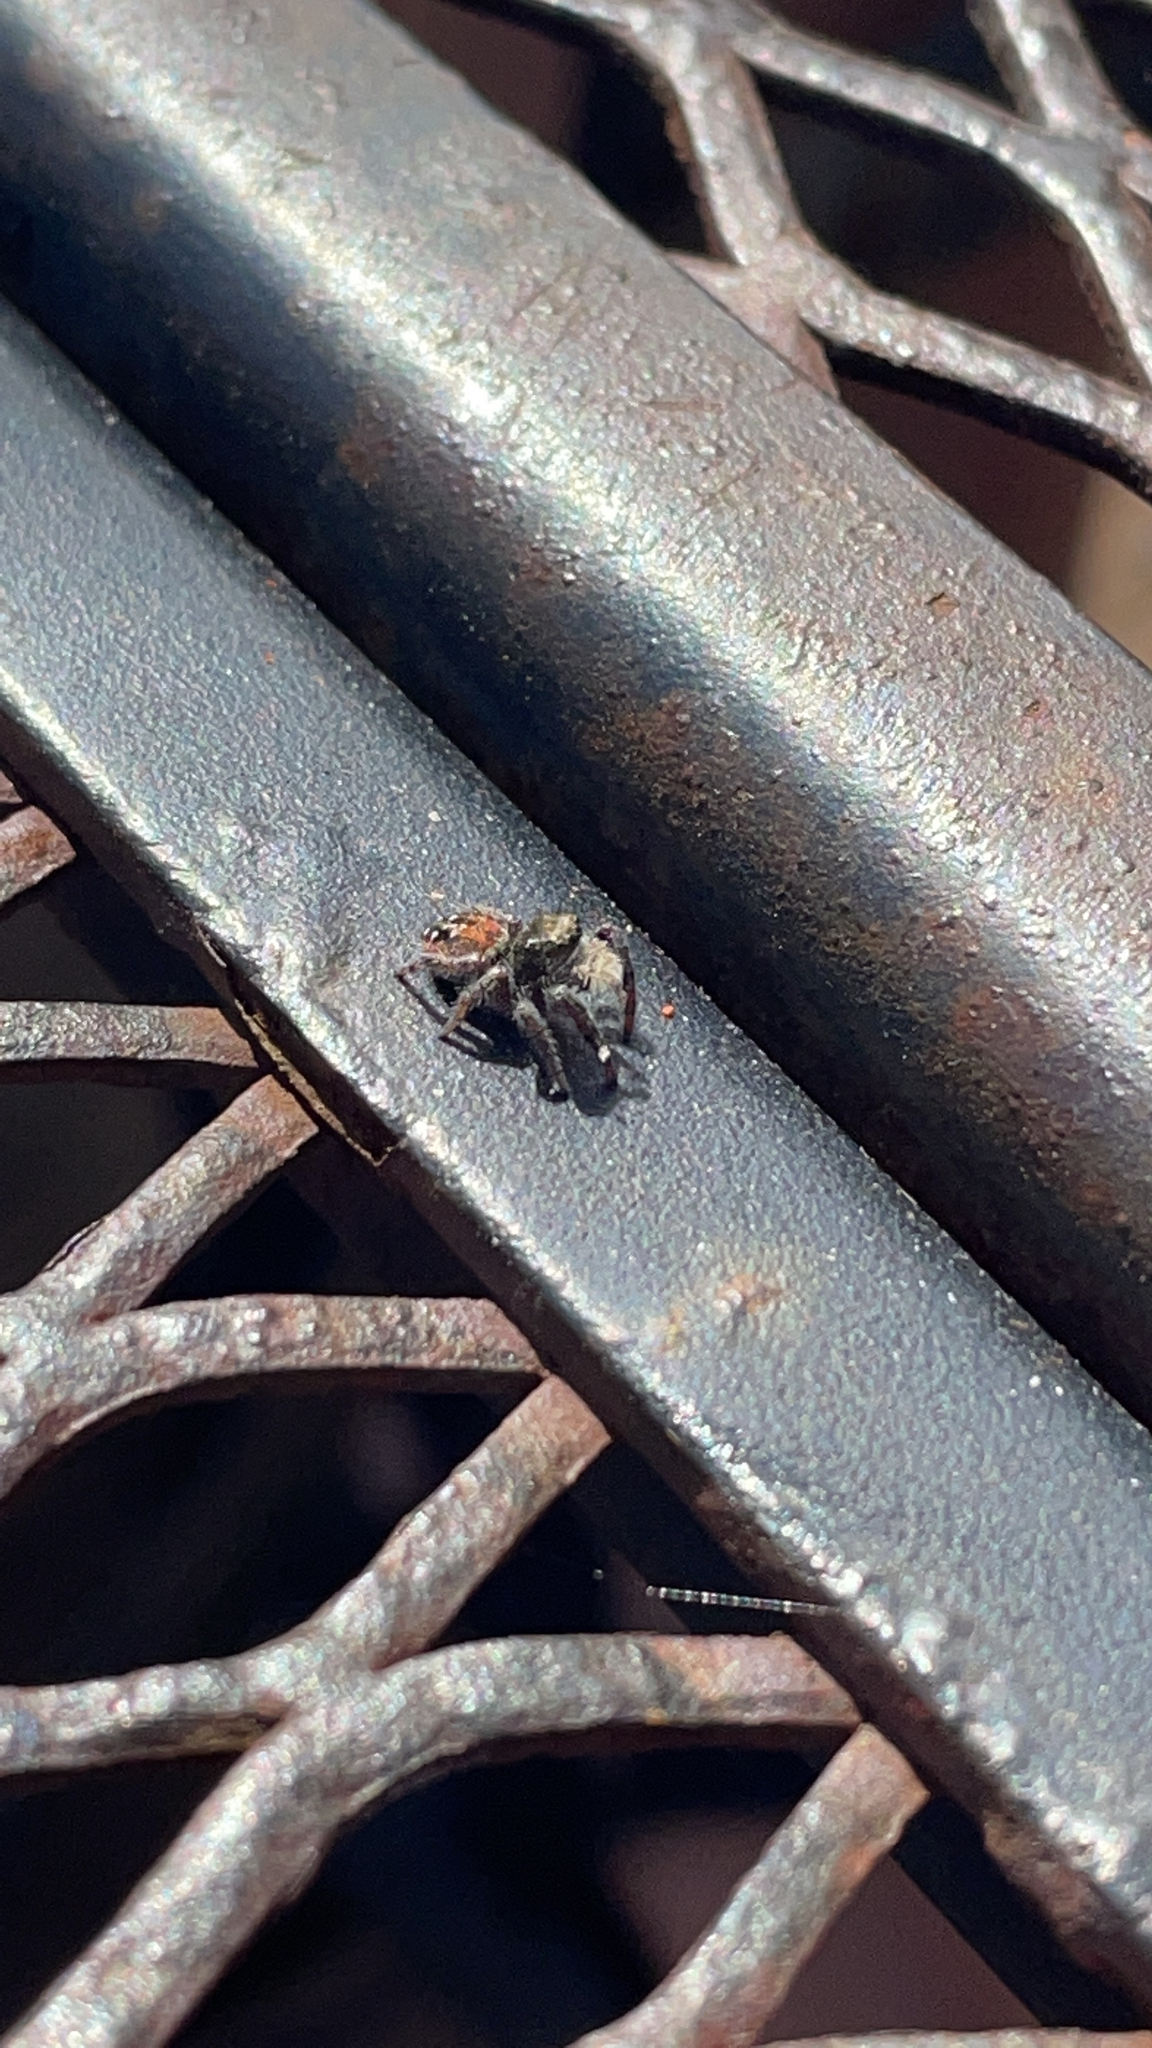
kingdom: Animalia
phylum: Arthropoda
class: Arachnida
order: Araneae
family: Salticidae
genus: Phidippus
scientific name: Phidippus johnsoni
